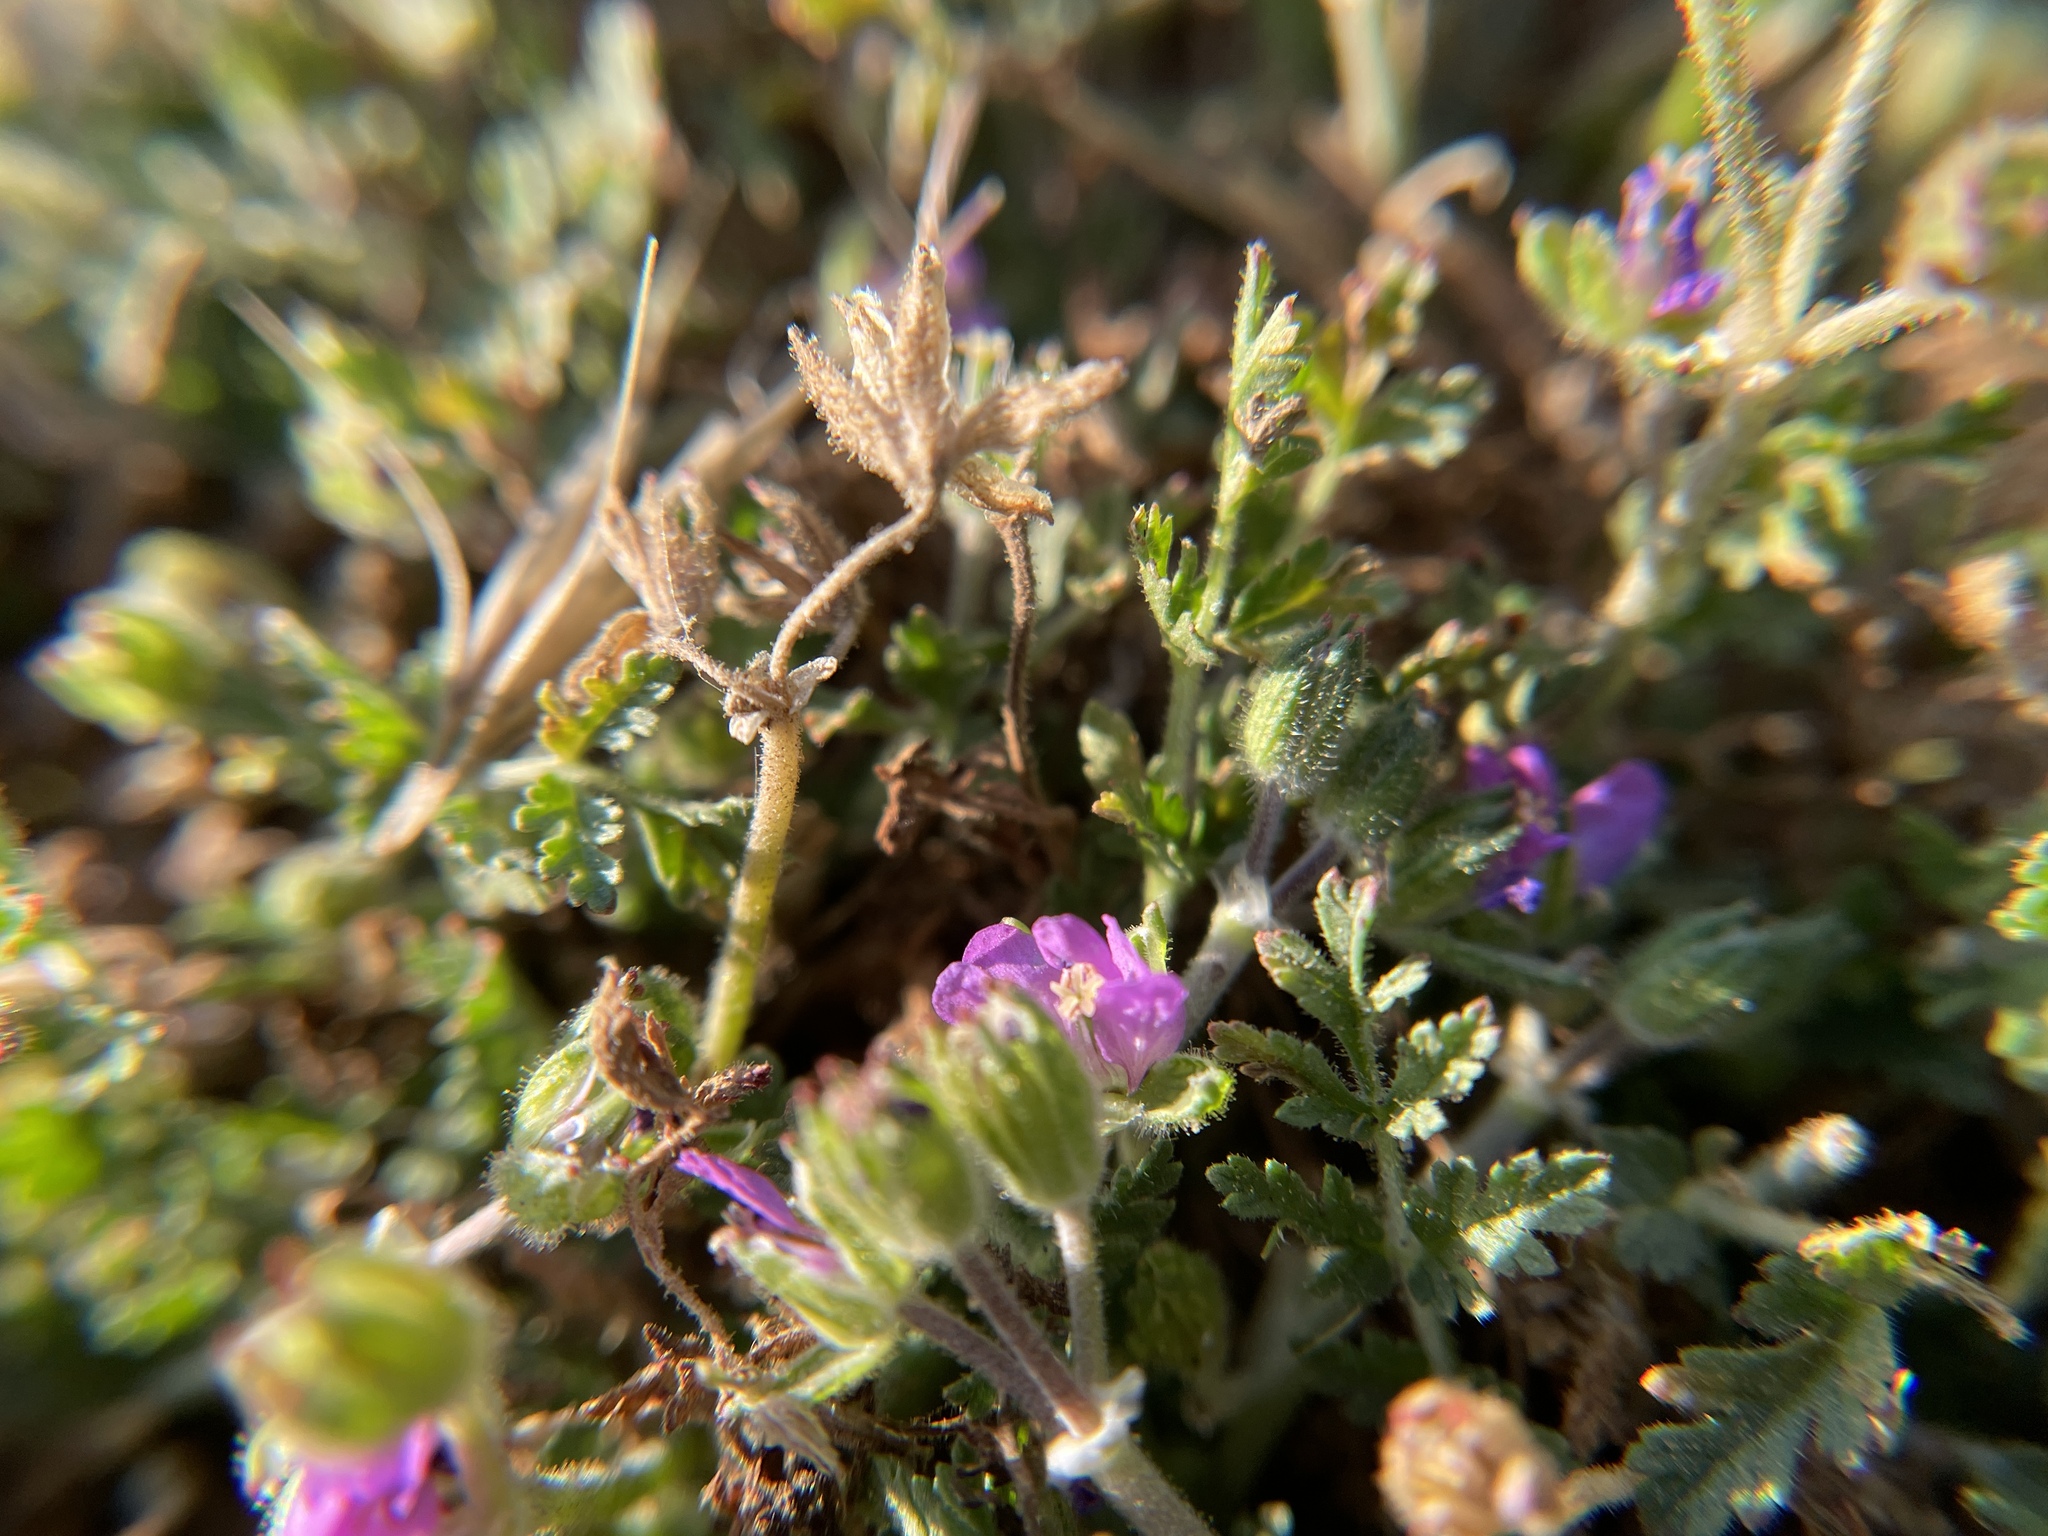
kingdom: Plantae
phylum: Tracheophyta
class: Magnoliopsida
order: Geraniales
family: Geraniaceae
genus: Erodium
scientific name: Erodium moschatum
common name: Musk stork's-bill
